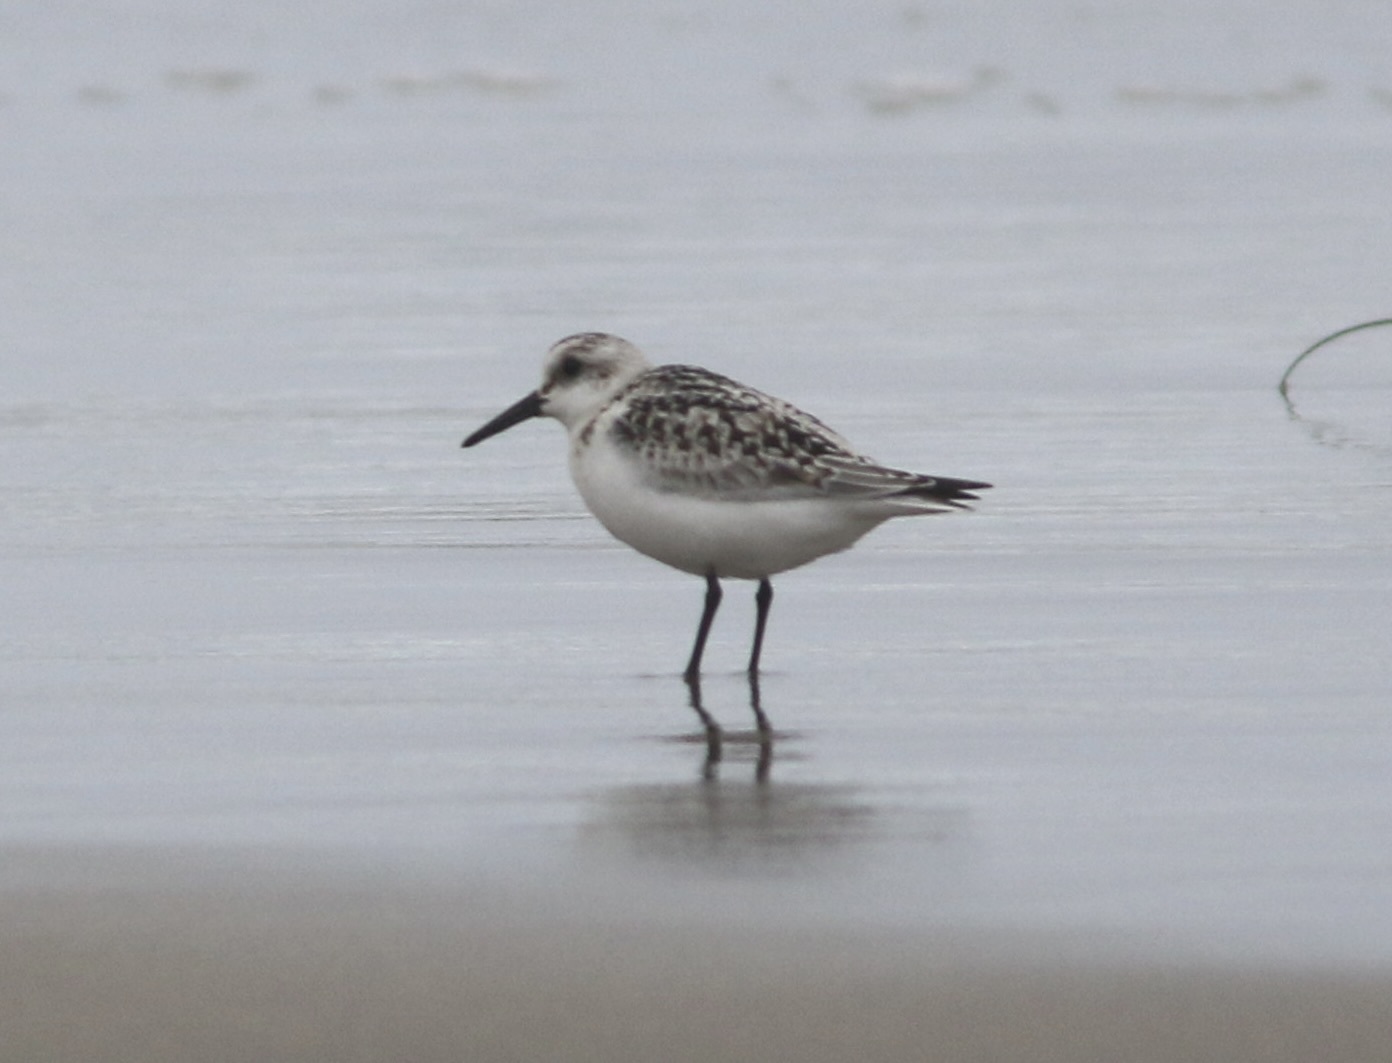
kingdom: Animalia
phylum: Chordata
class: Aves
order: Charadriiformes
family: Scolopacidae
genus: Calidris
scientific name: Calidris alba
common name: Sanderling
